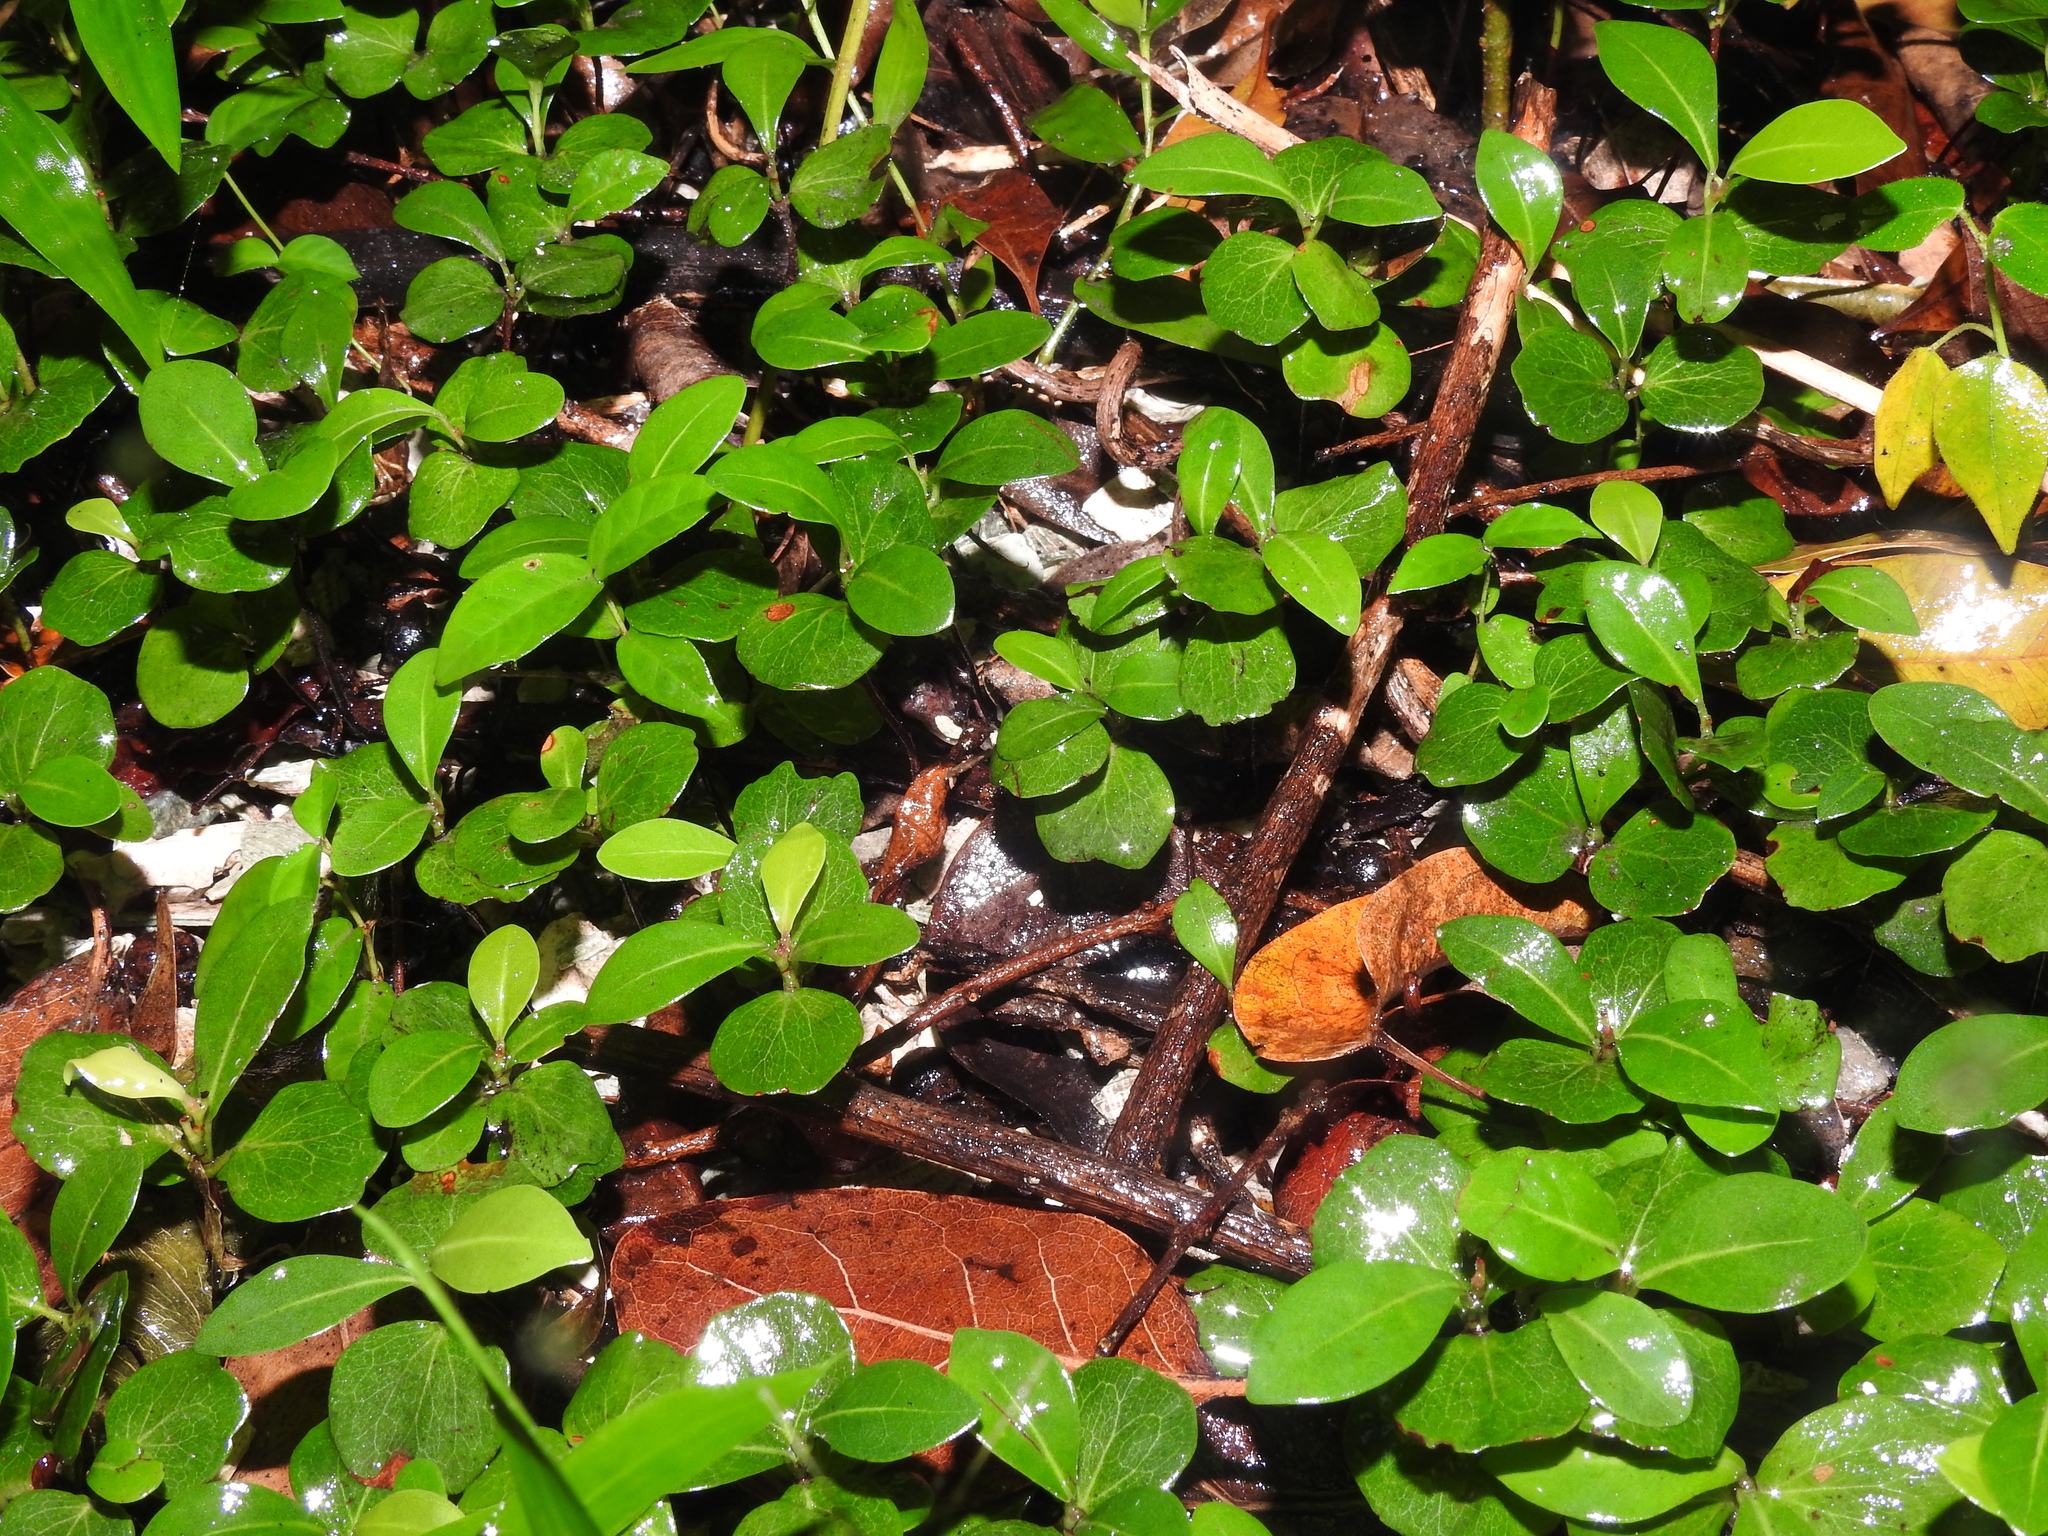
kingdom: Plantae
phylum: Tracheophyta
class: Magnoliopsida
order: Caryophyllales
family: Polygonaceae
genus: Coccoloba
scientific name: Coccoloba diversifolia
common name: Pigeon-plum
